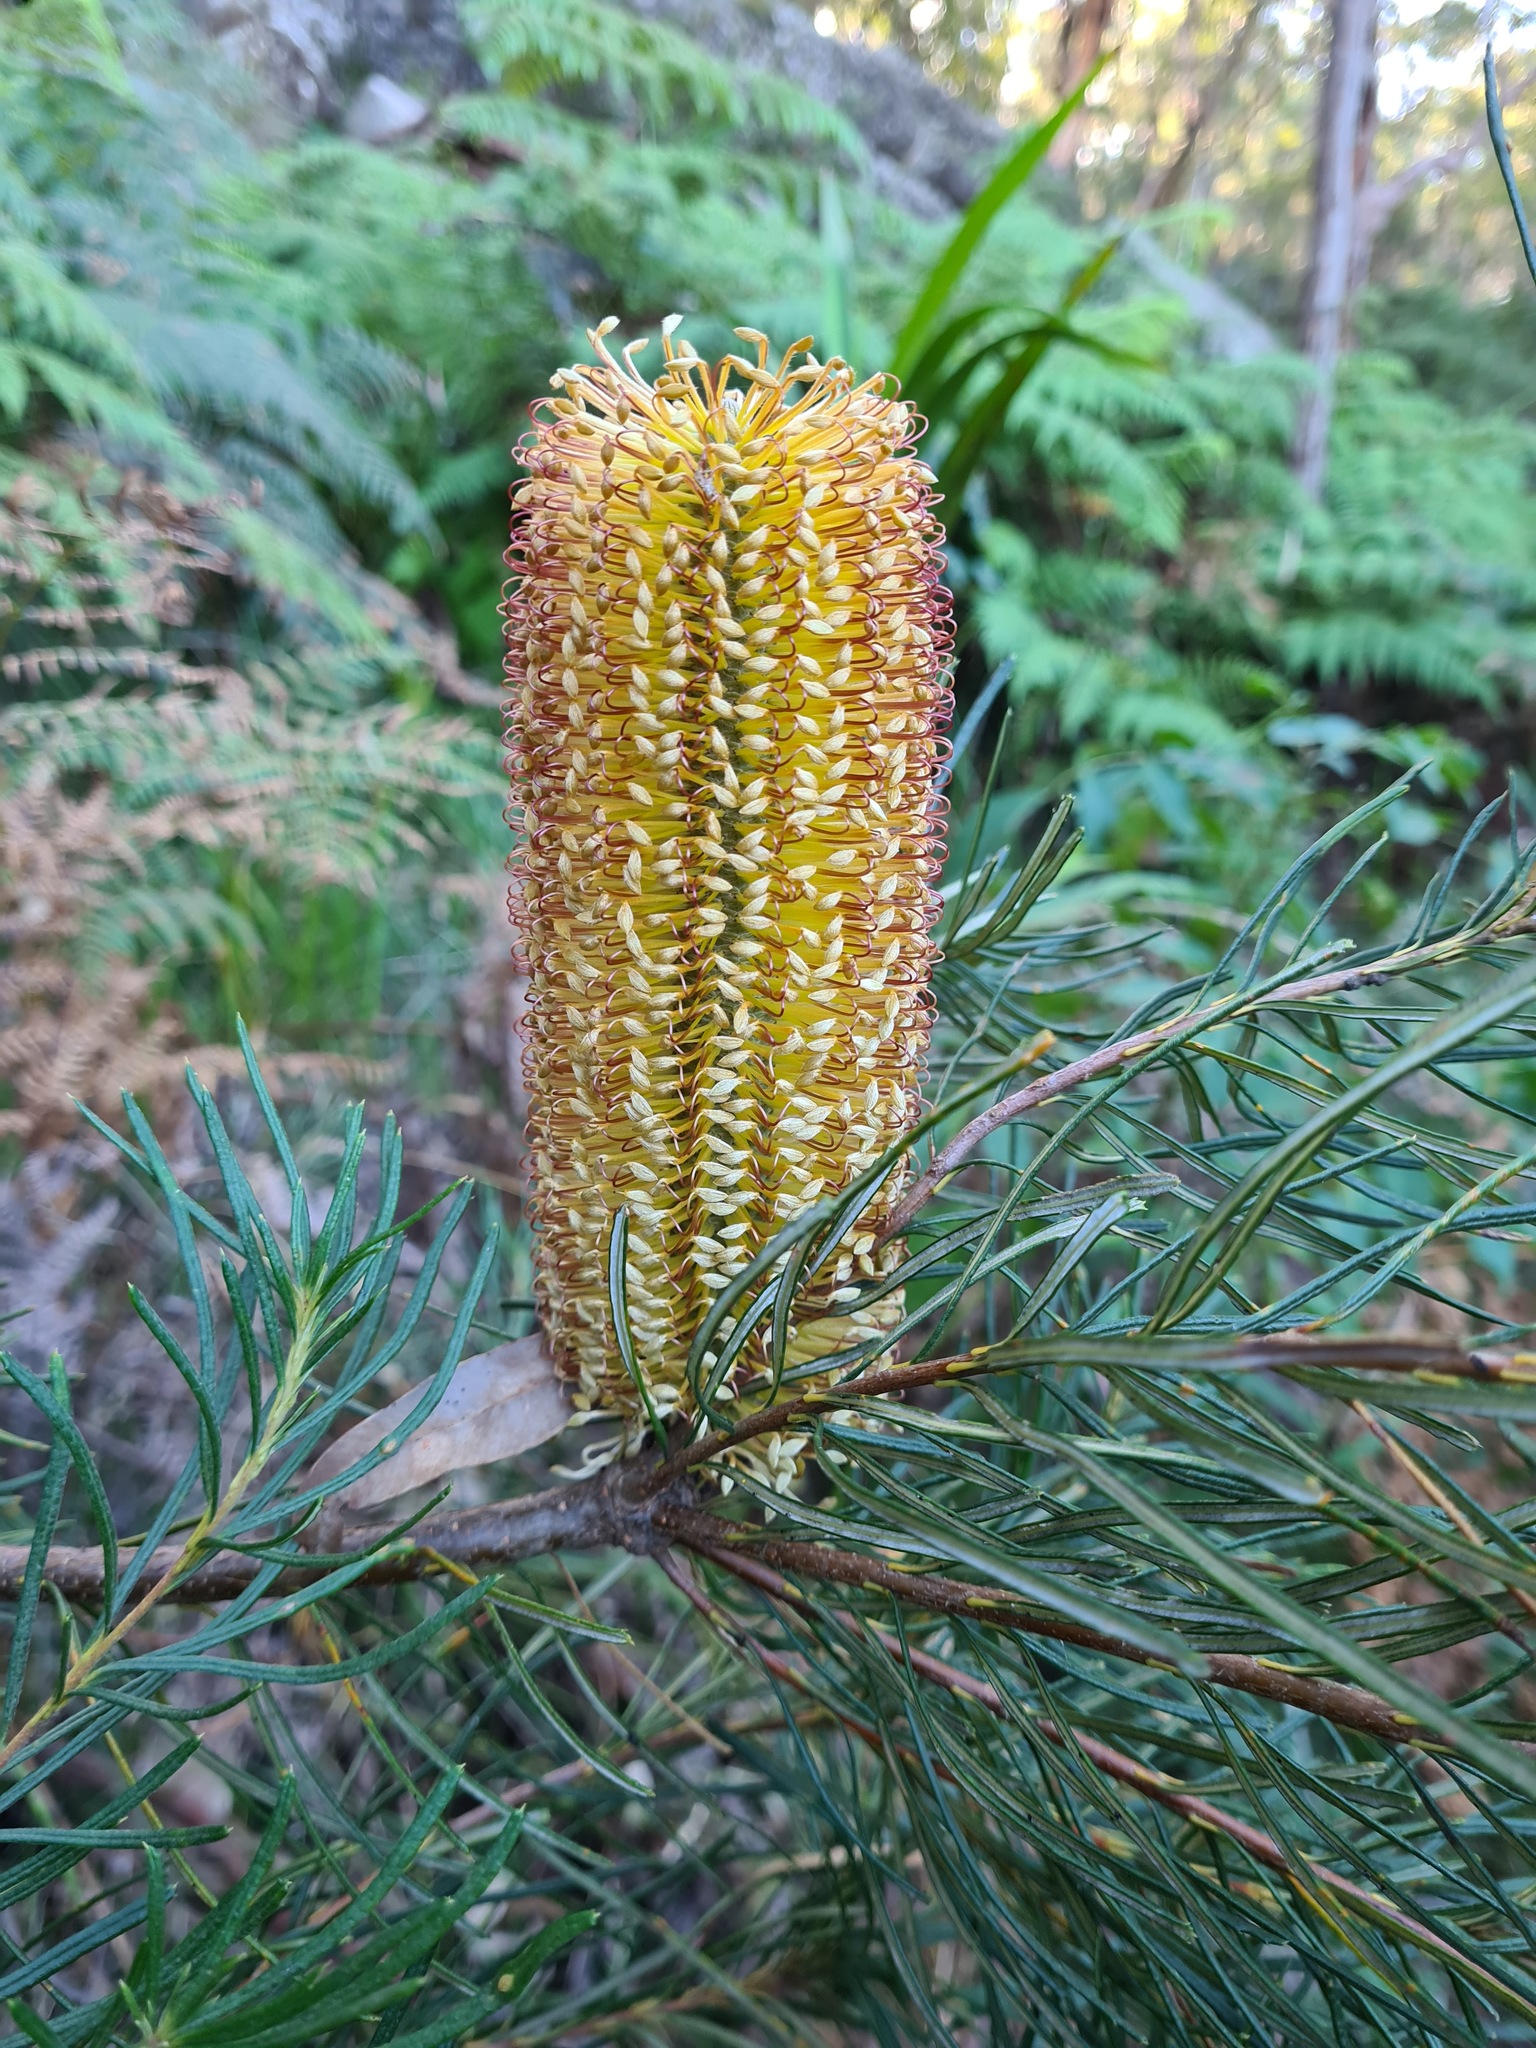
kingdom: Plantae
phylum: Tracheophyta
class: Magnoliopsida
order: Proteales
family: Proteaceae
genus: Banksia
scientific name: Banksia spinulosa
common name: Hairpin banksia
